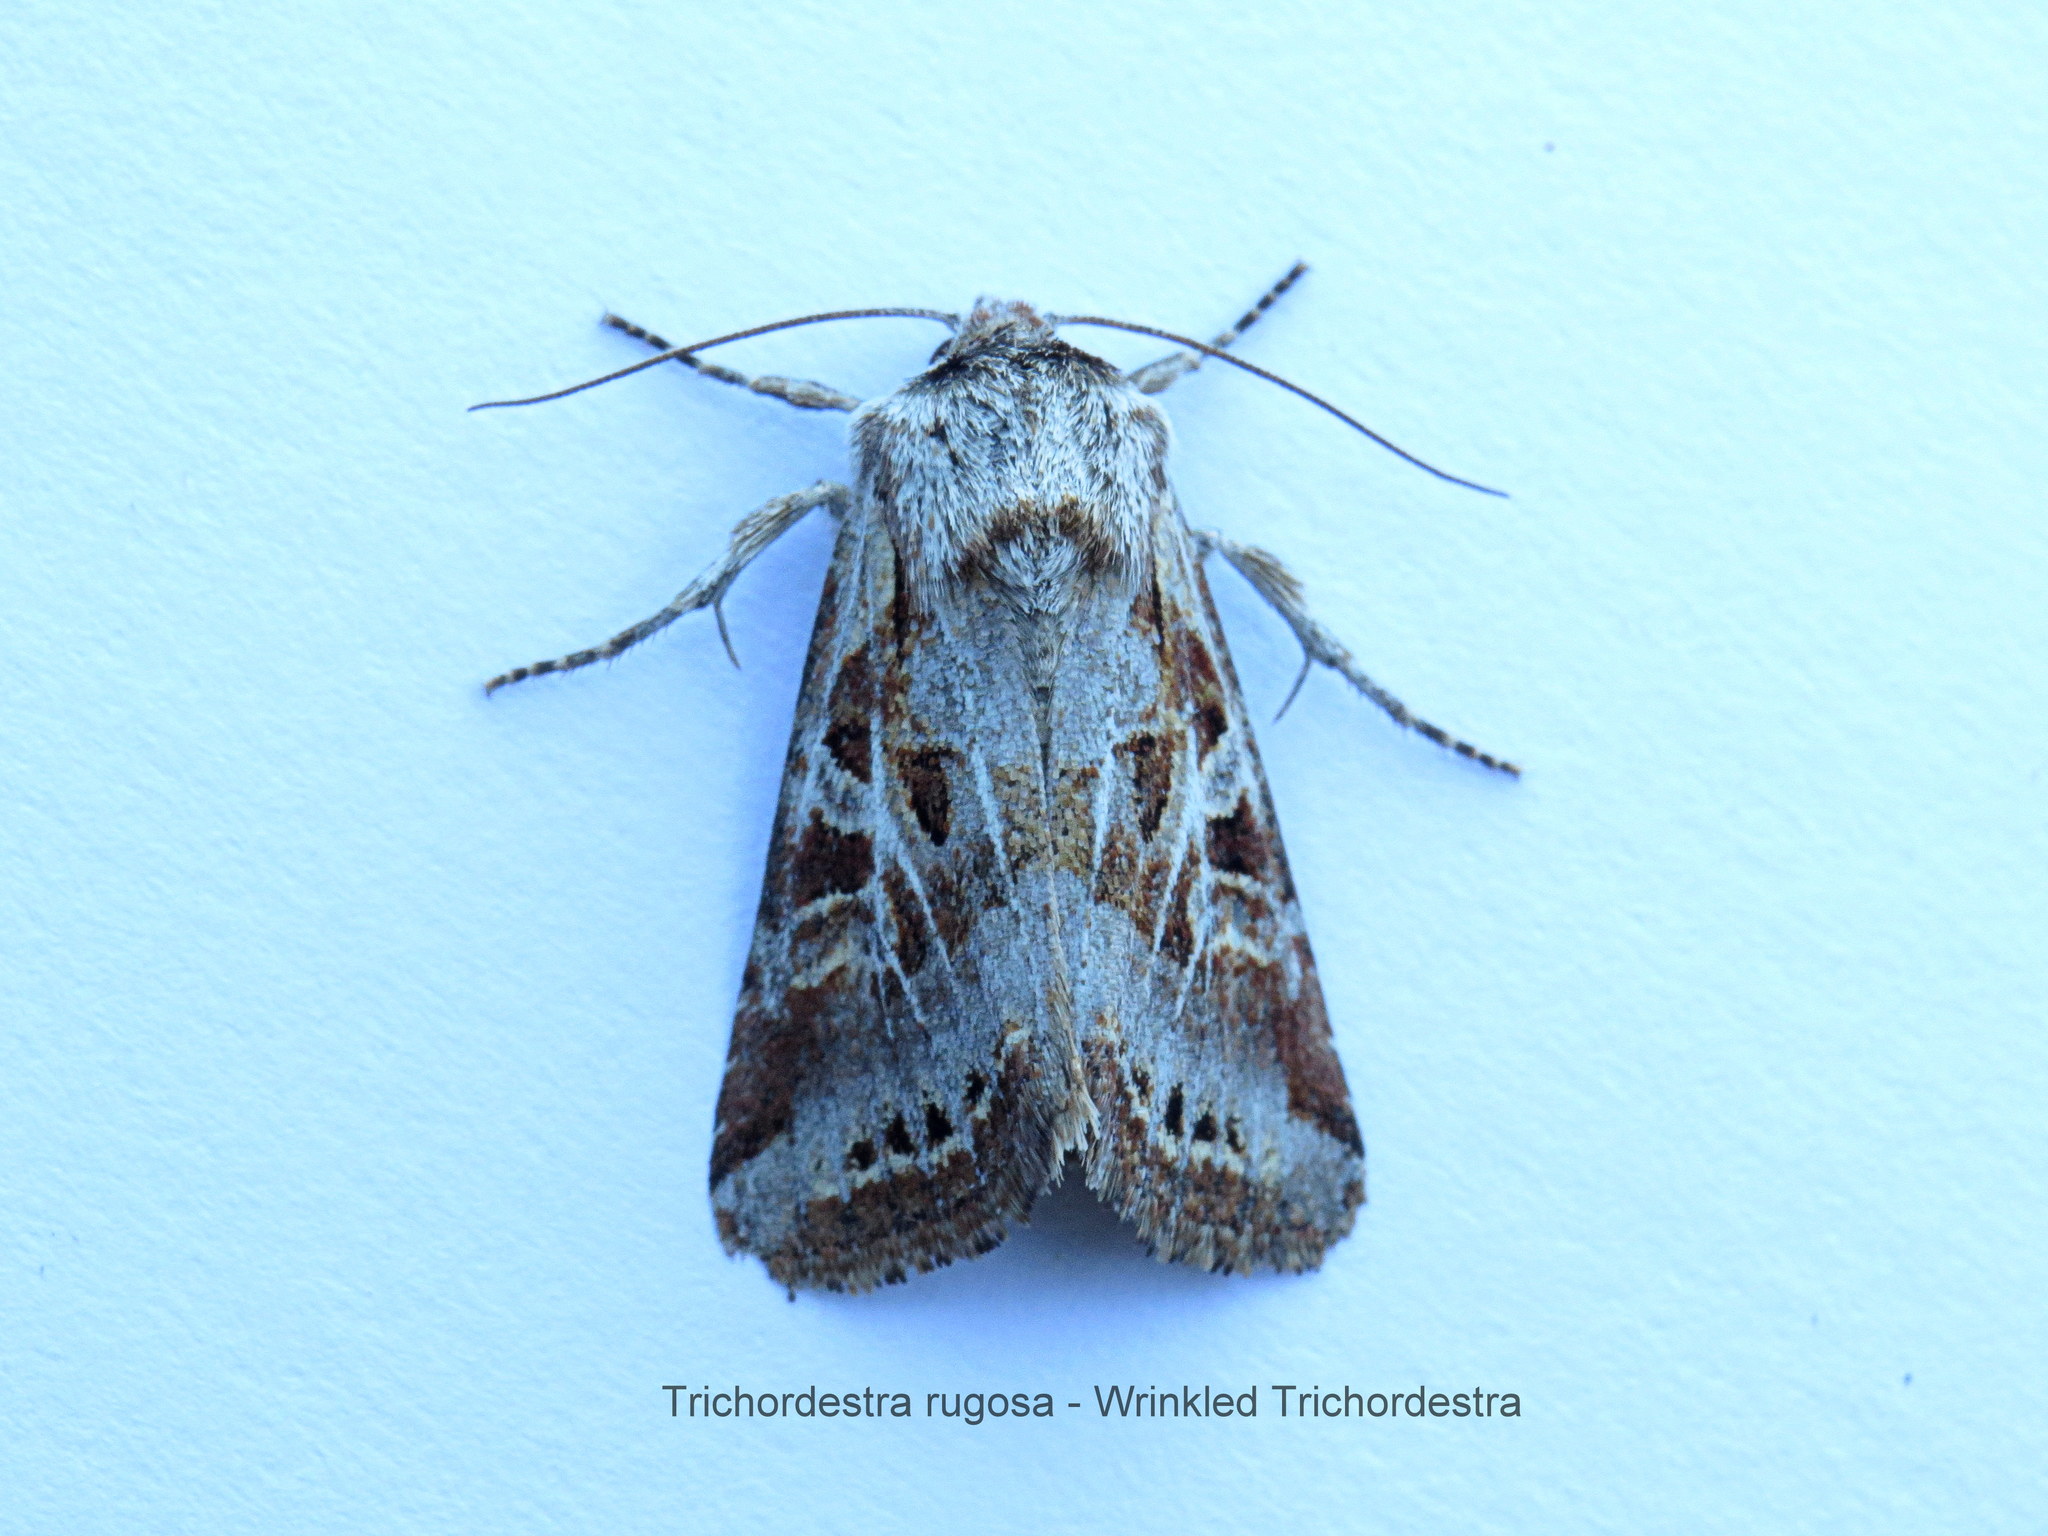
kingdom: Animalia
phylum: Arthropoda
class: Insecta
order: Lepidoptera
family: Noctuidae
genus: Trichordestra
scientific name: Trichordestra rugosa
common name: Wrinkled trichordestra
